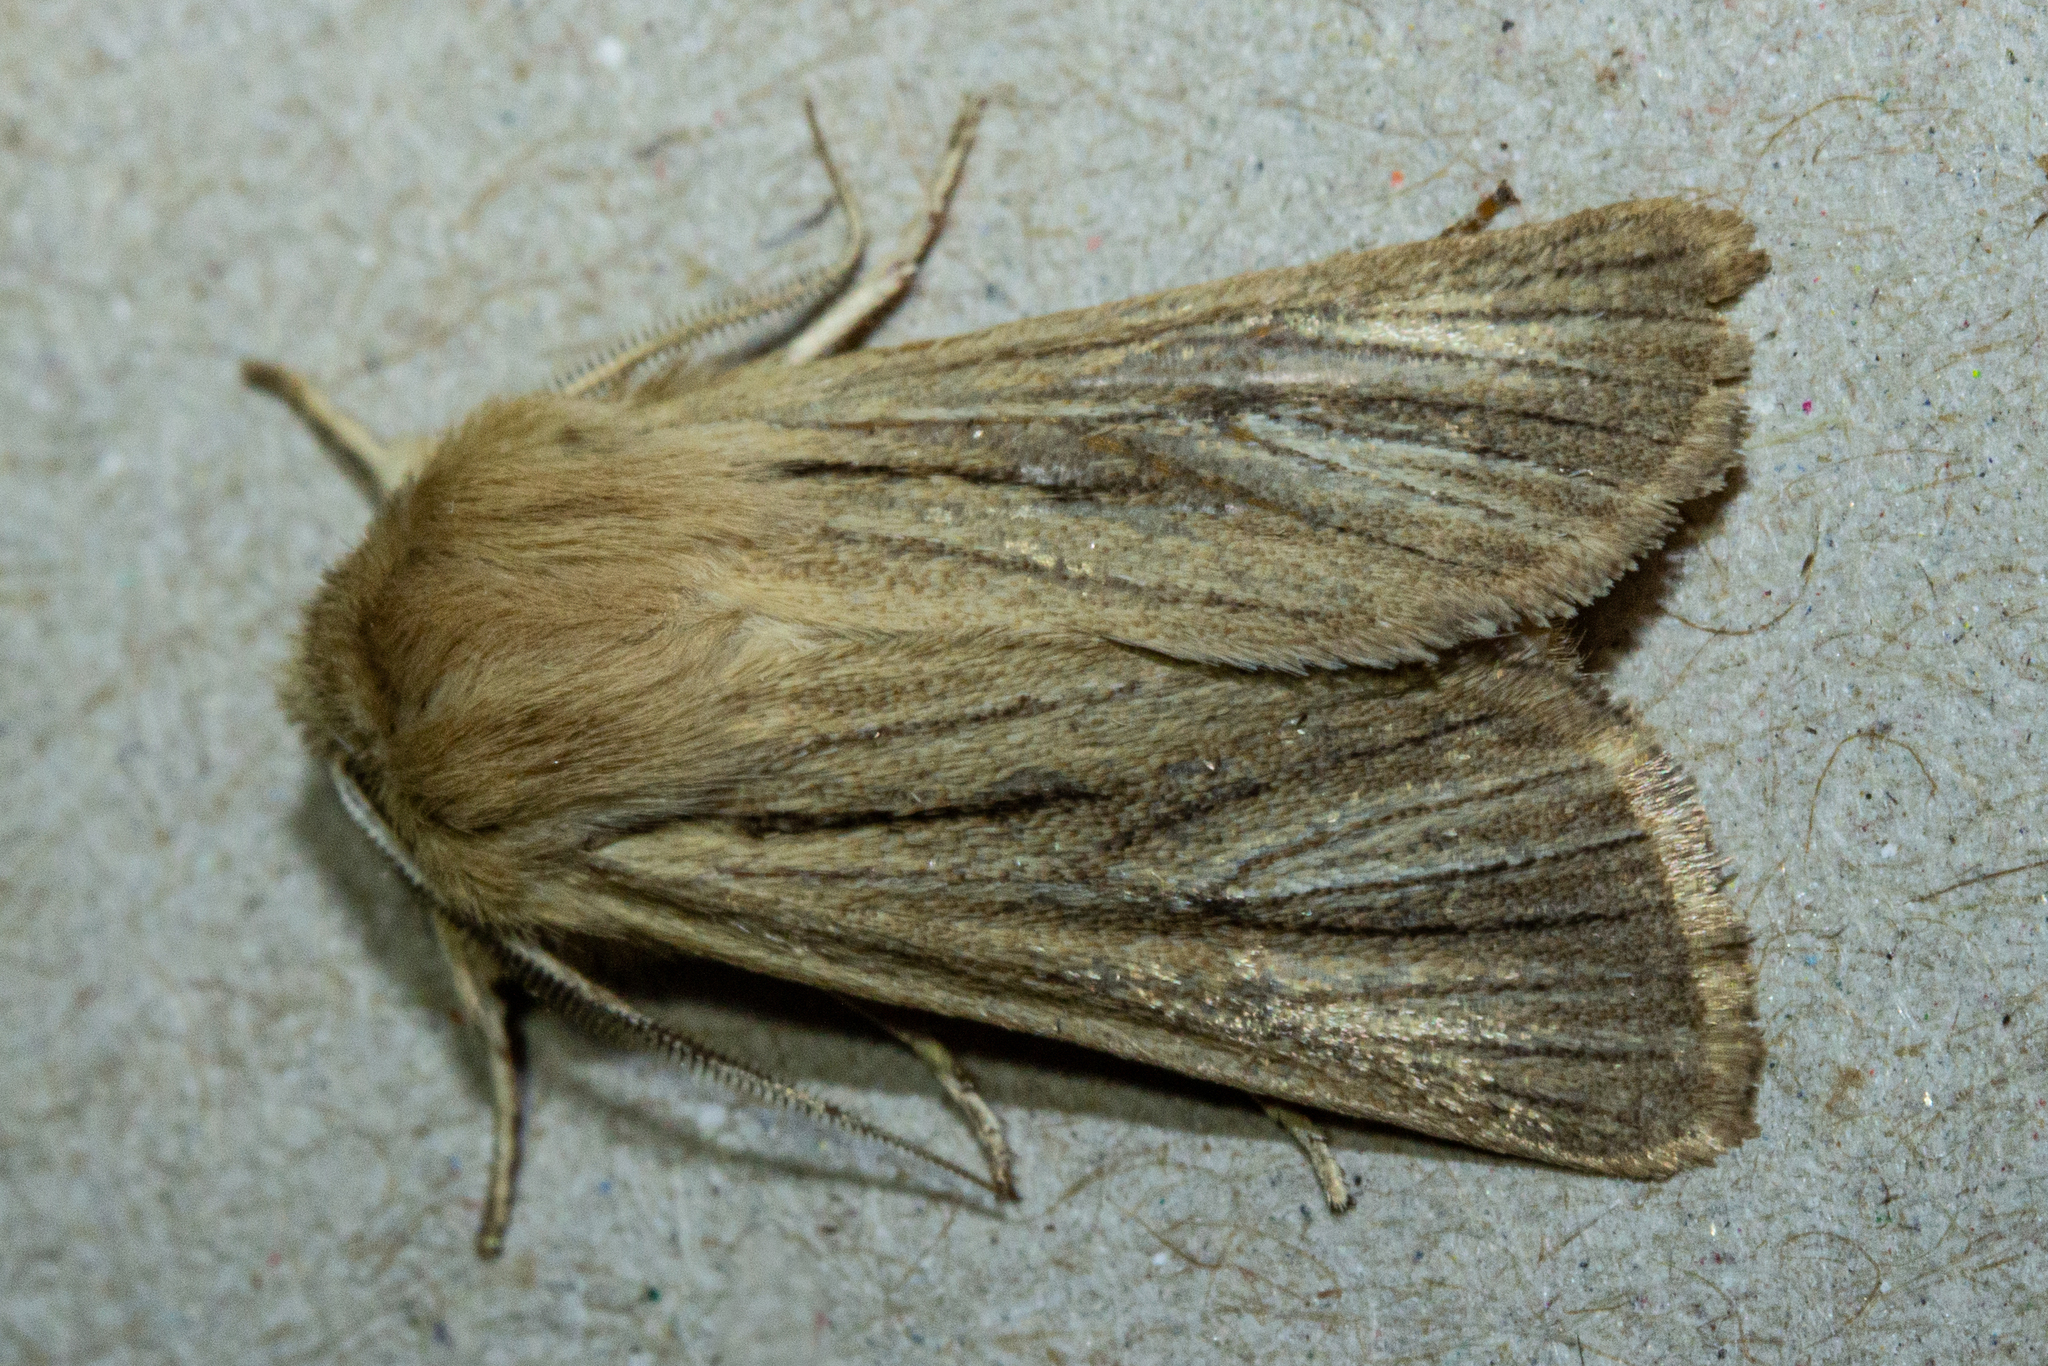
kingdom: Animalia
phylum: Arthropoda
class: Insecta
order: Lepidoptera
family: Noctuidae
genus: Ichneutica
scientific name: Ichneutica
